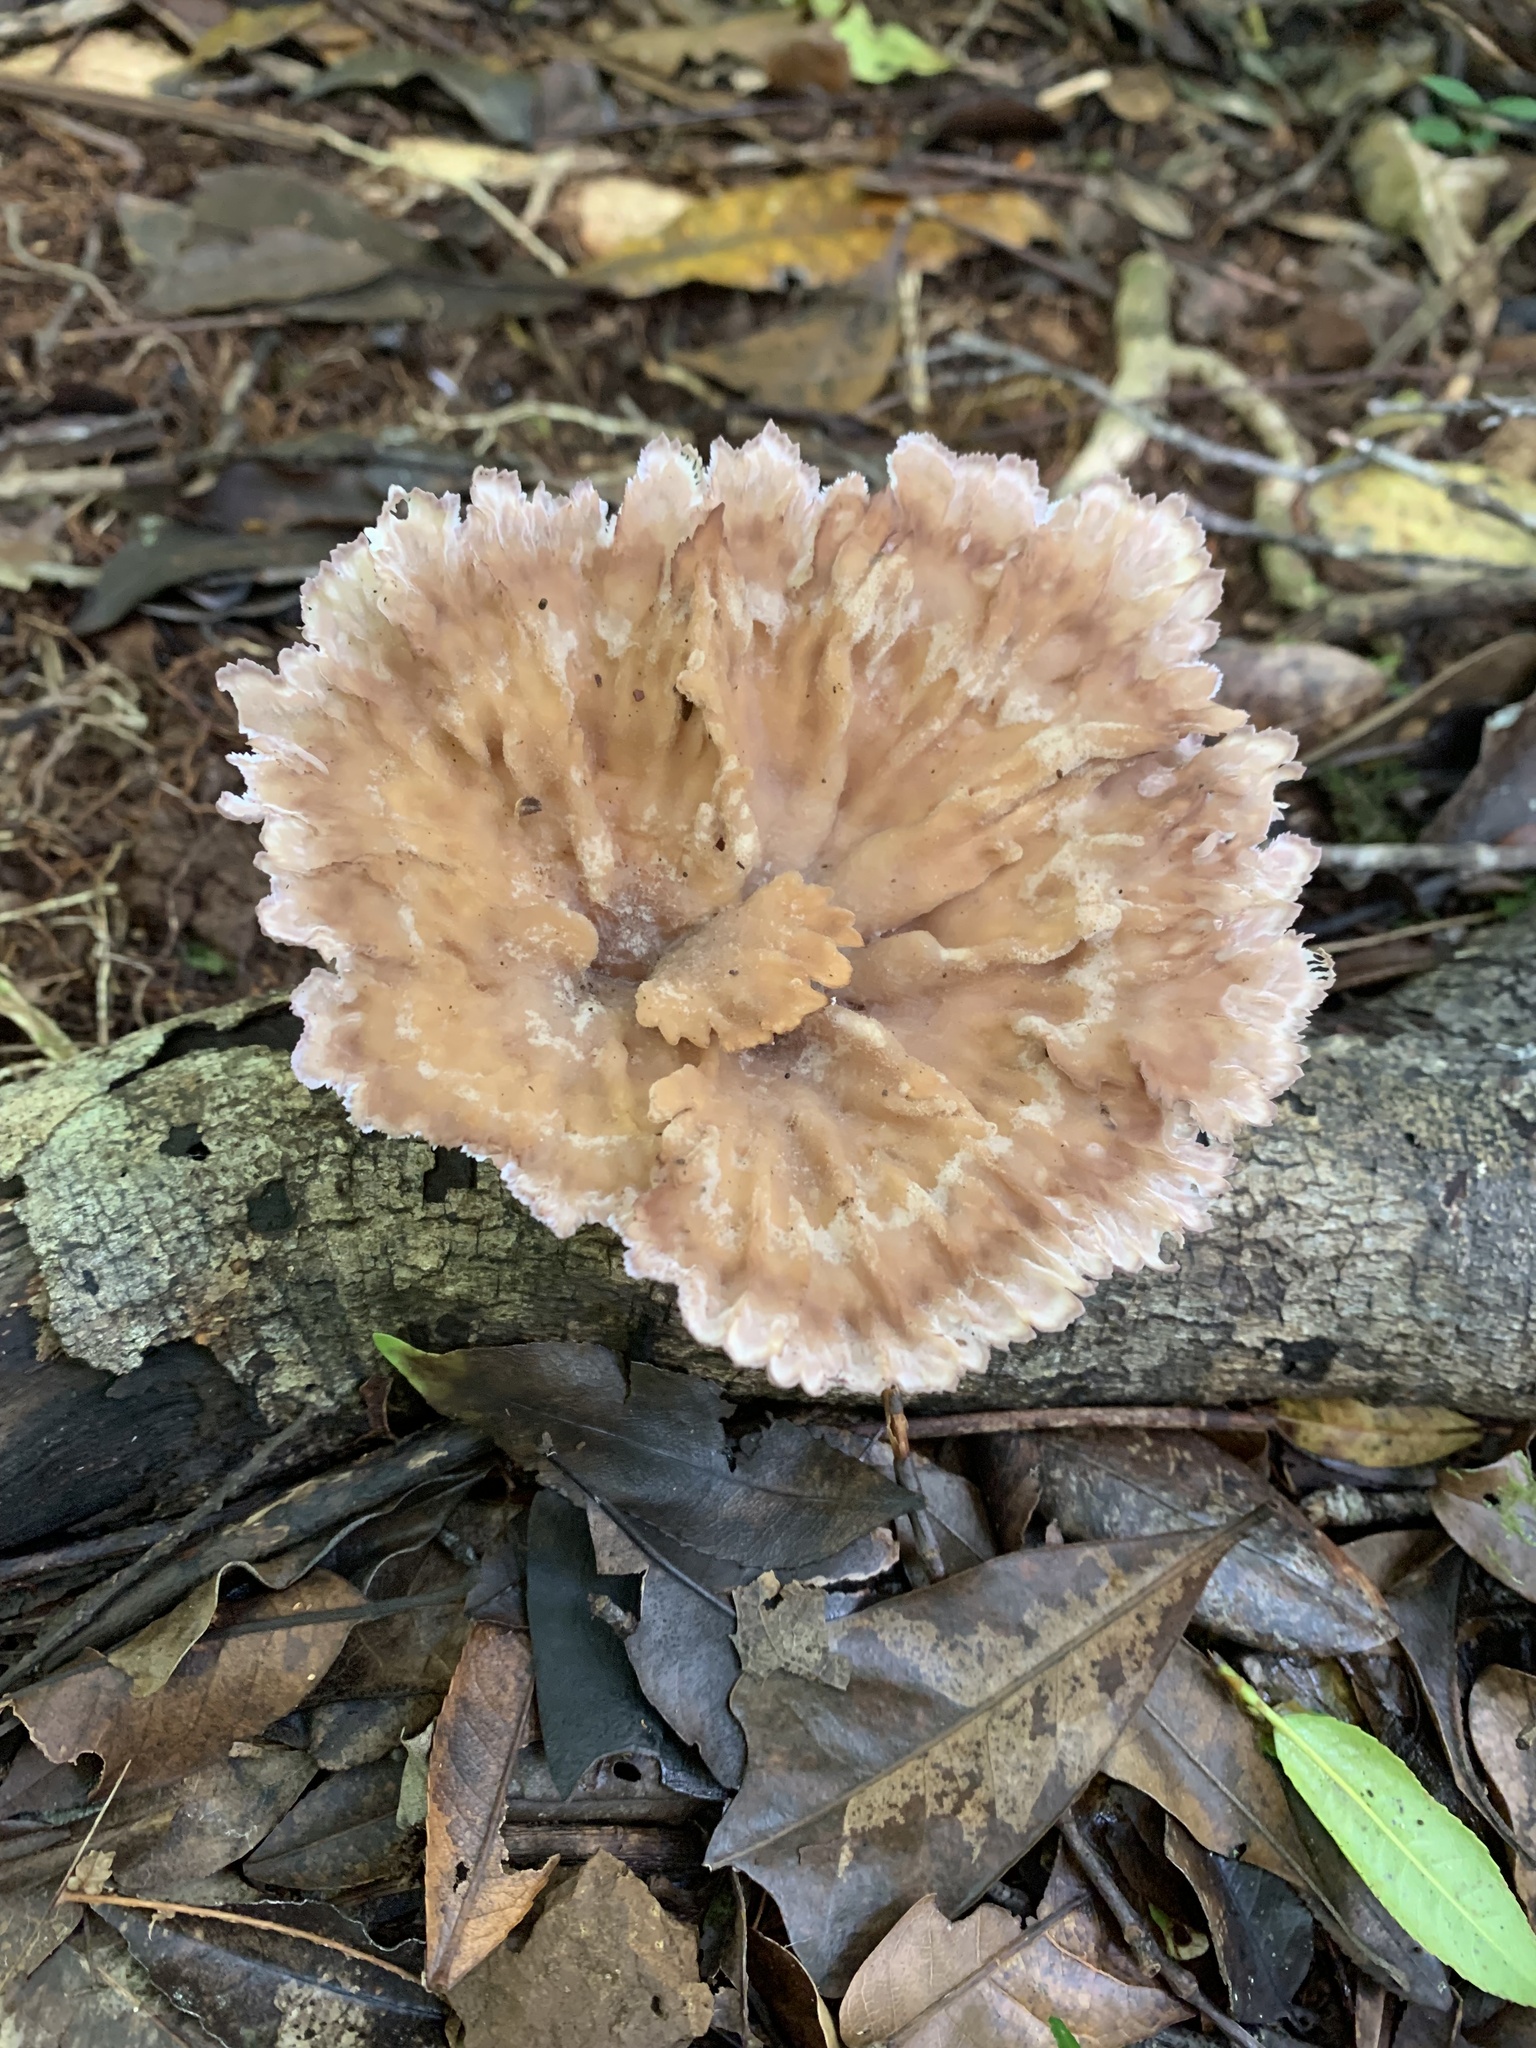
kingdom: Fungi
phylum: Basidiomycota
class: Agaricomycetes
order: Polyporales
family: Panaceae
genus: Cymatoderma
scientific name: Cymatoderma elegans
